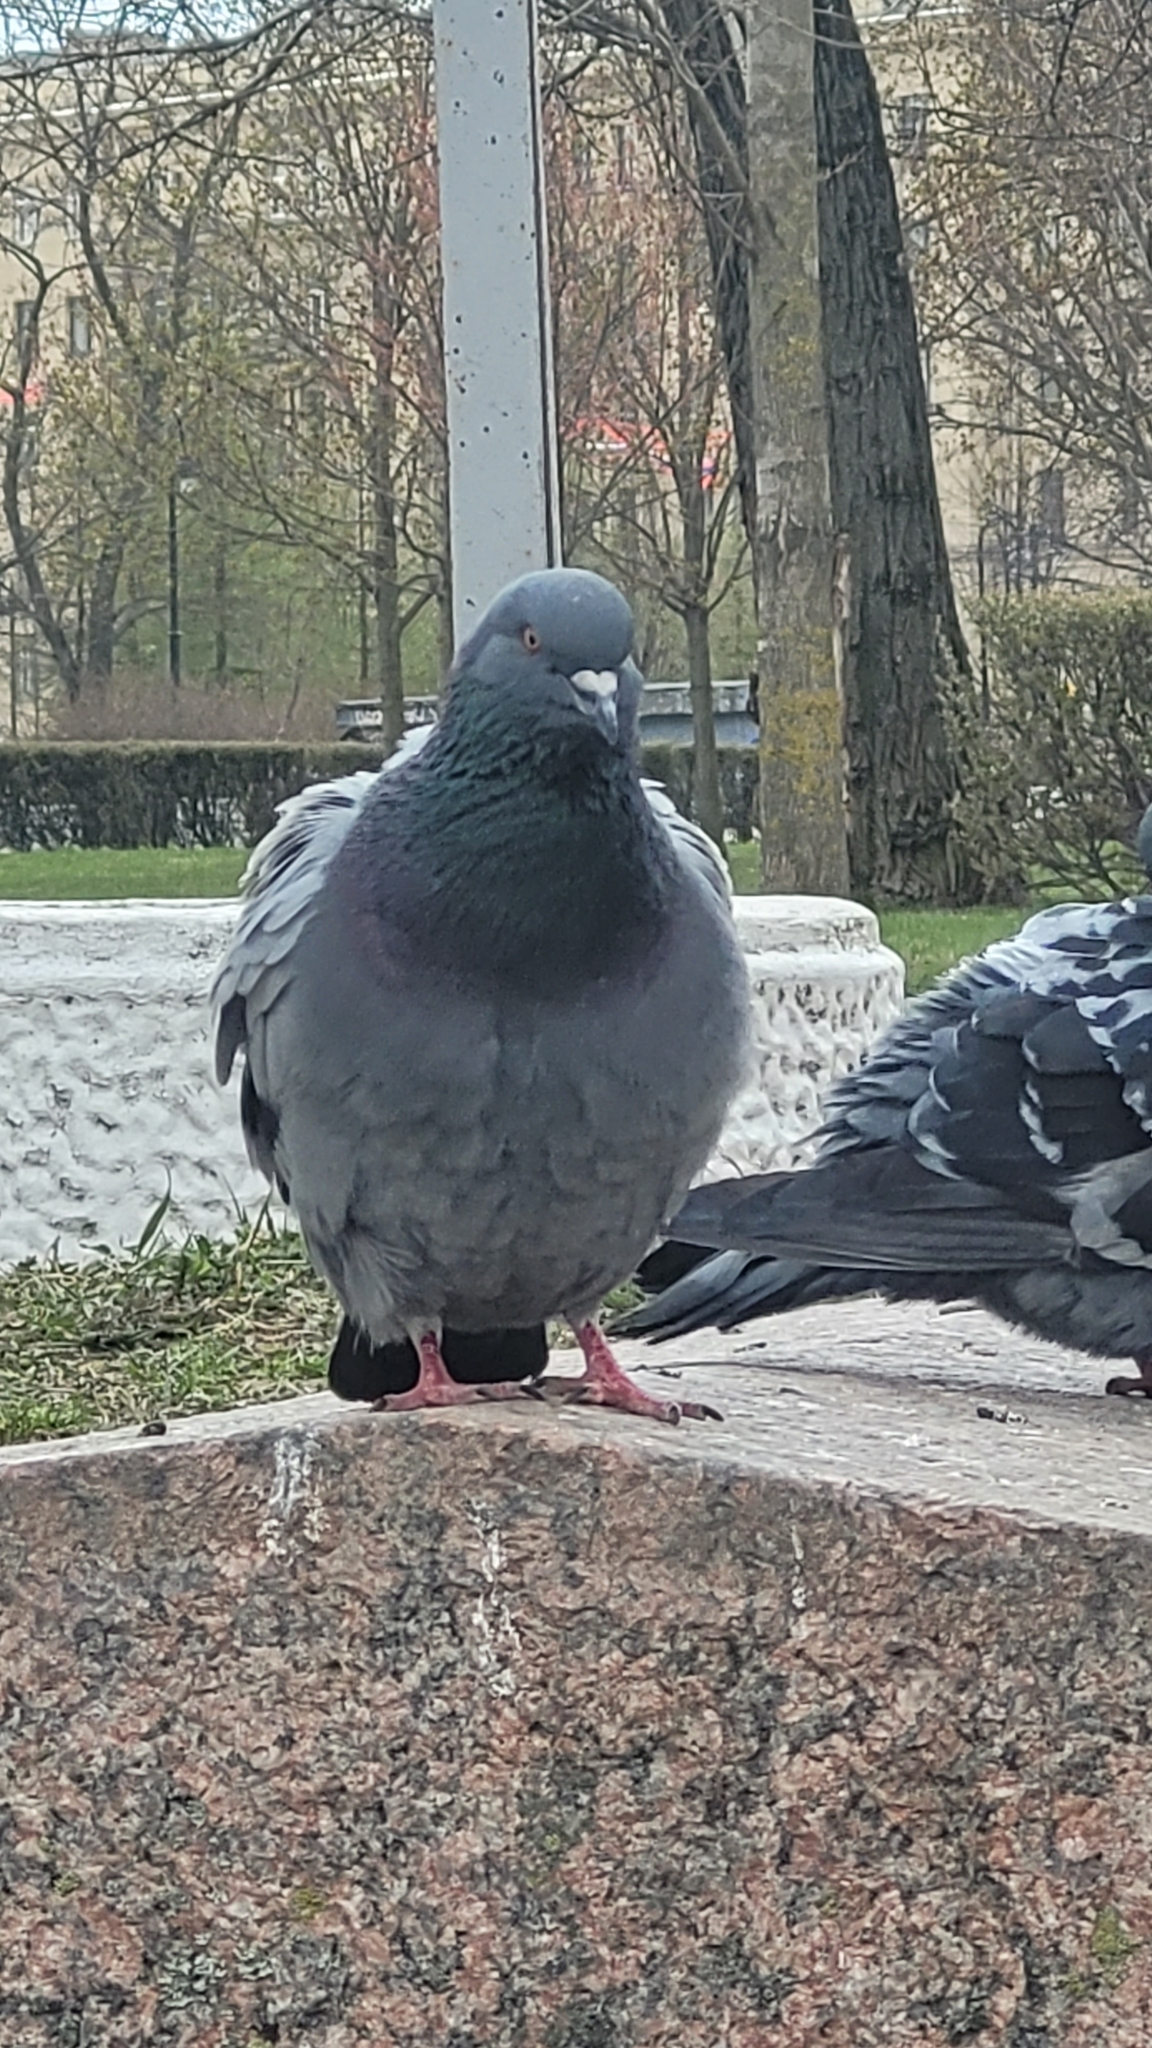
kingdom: Animalia
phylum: Chordata
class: Aves
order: Columbiformes
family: Columbidae
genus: Columba
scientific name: Columba livia
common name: Rock pigeon
